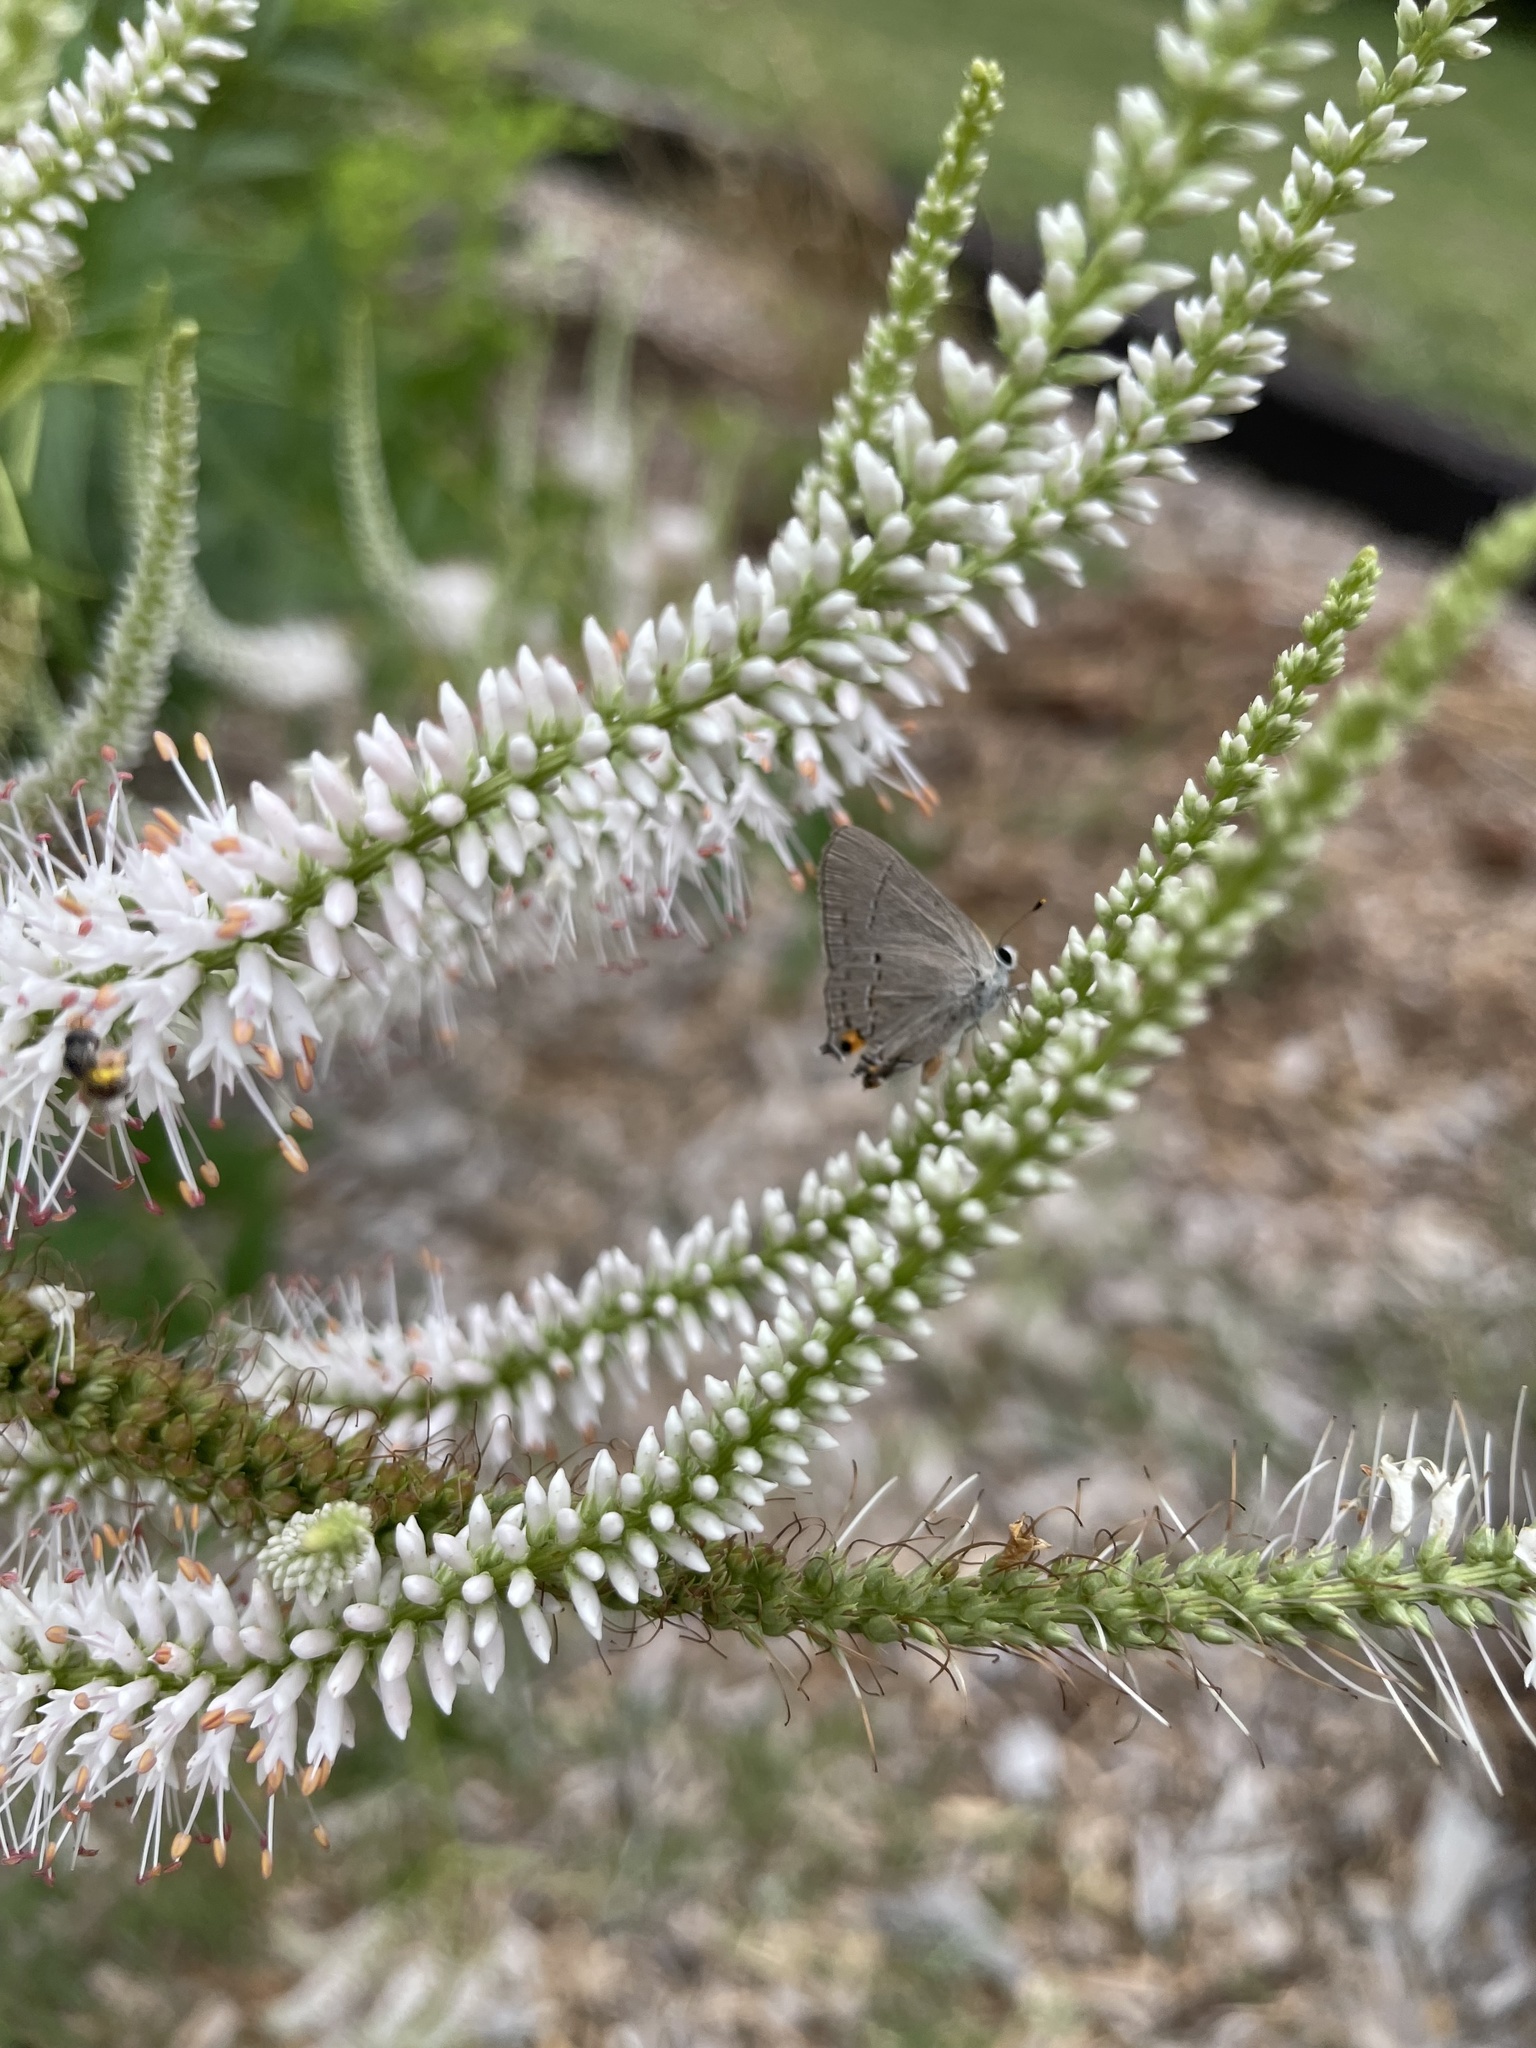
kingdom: Animalia
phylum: Arthropoda
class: Insecta
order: Lepidoptera
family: Lycaenidae
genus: Strymon
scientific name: Strymon melinus
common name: Gray hairstreak
